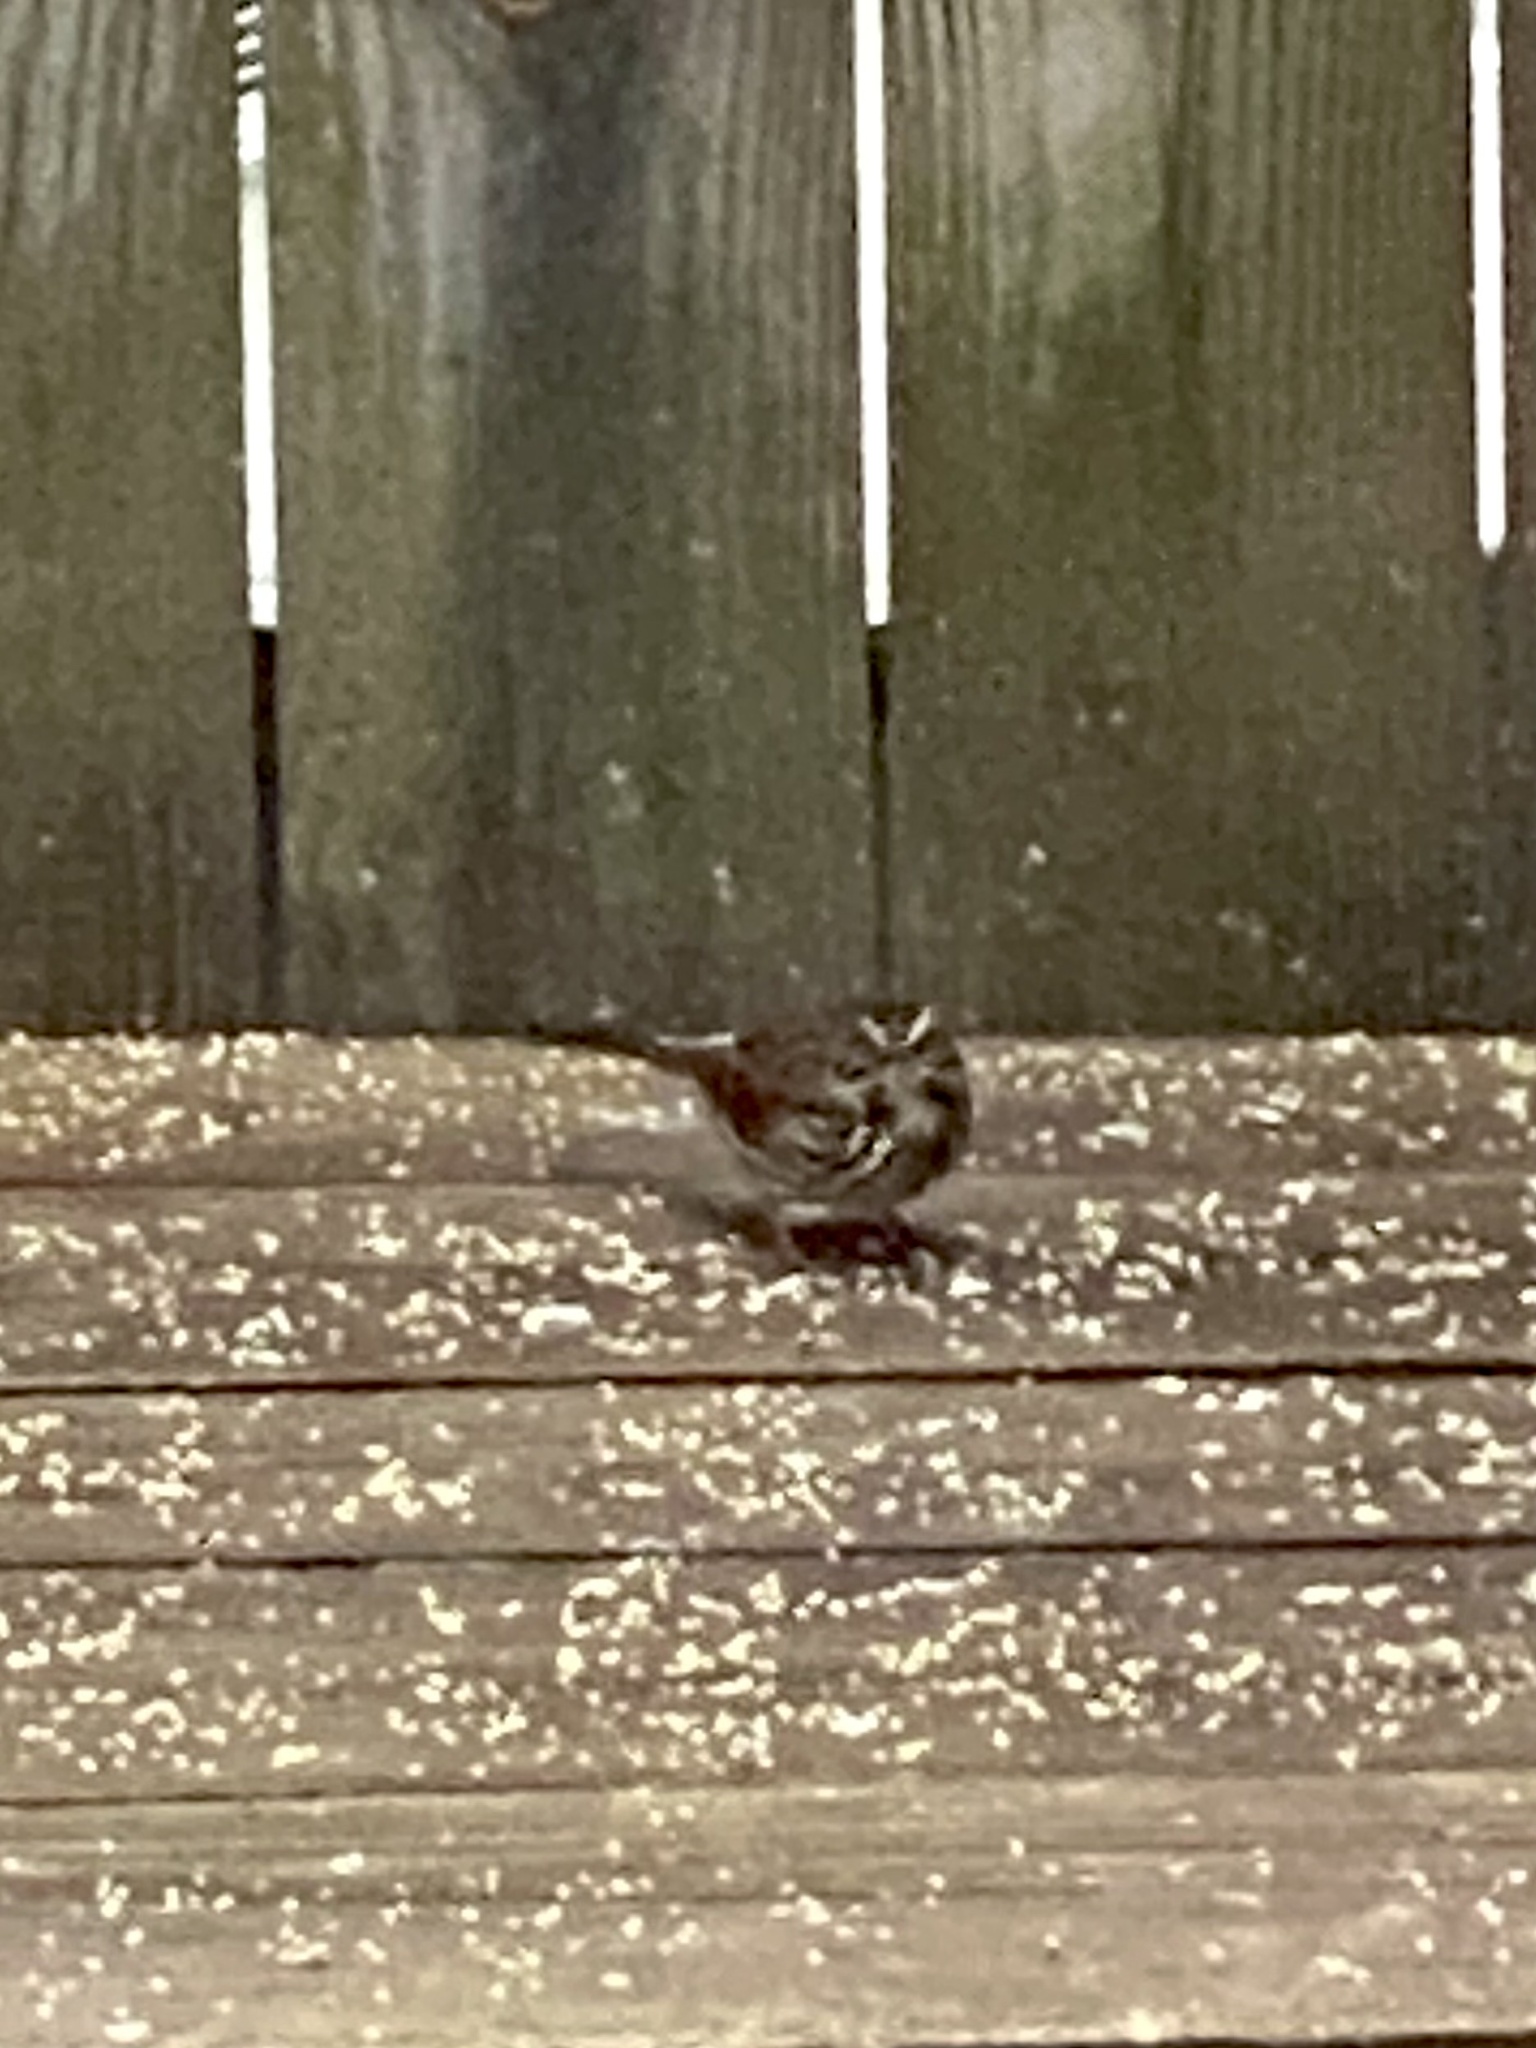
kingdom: Animalia
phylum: Chordata
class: Aves
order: Passeriformes
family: Passerellidae
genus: Melospiza
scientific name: Melospiza melodia
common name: Song sparrow
